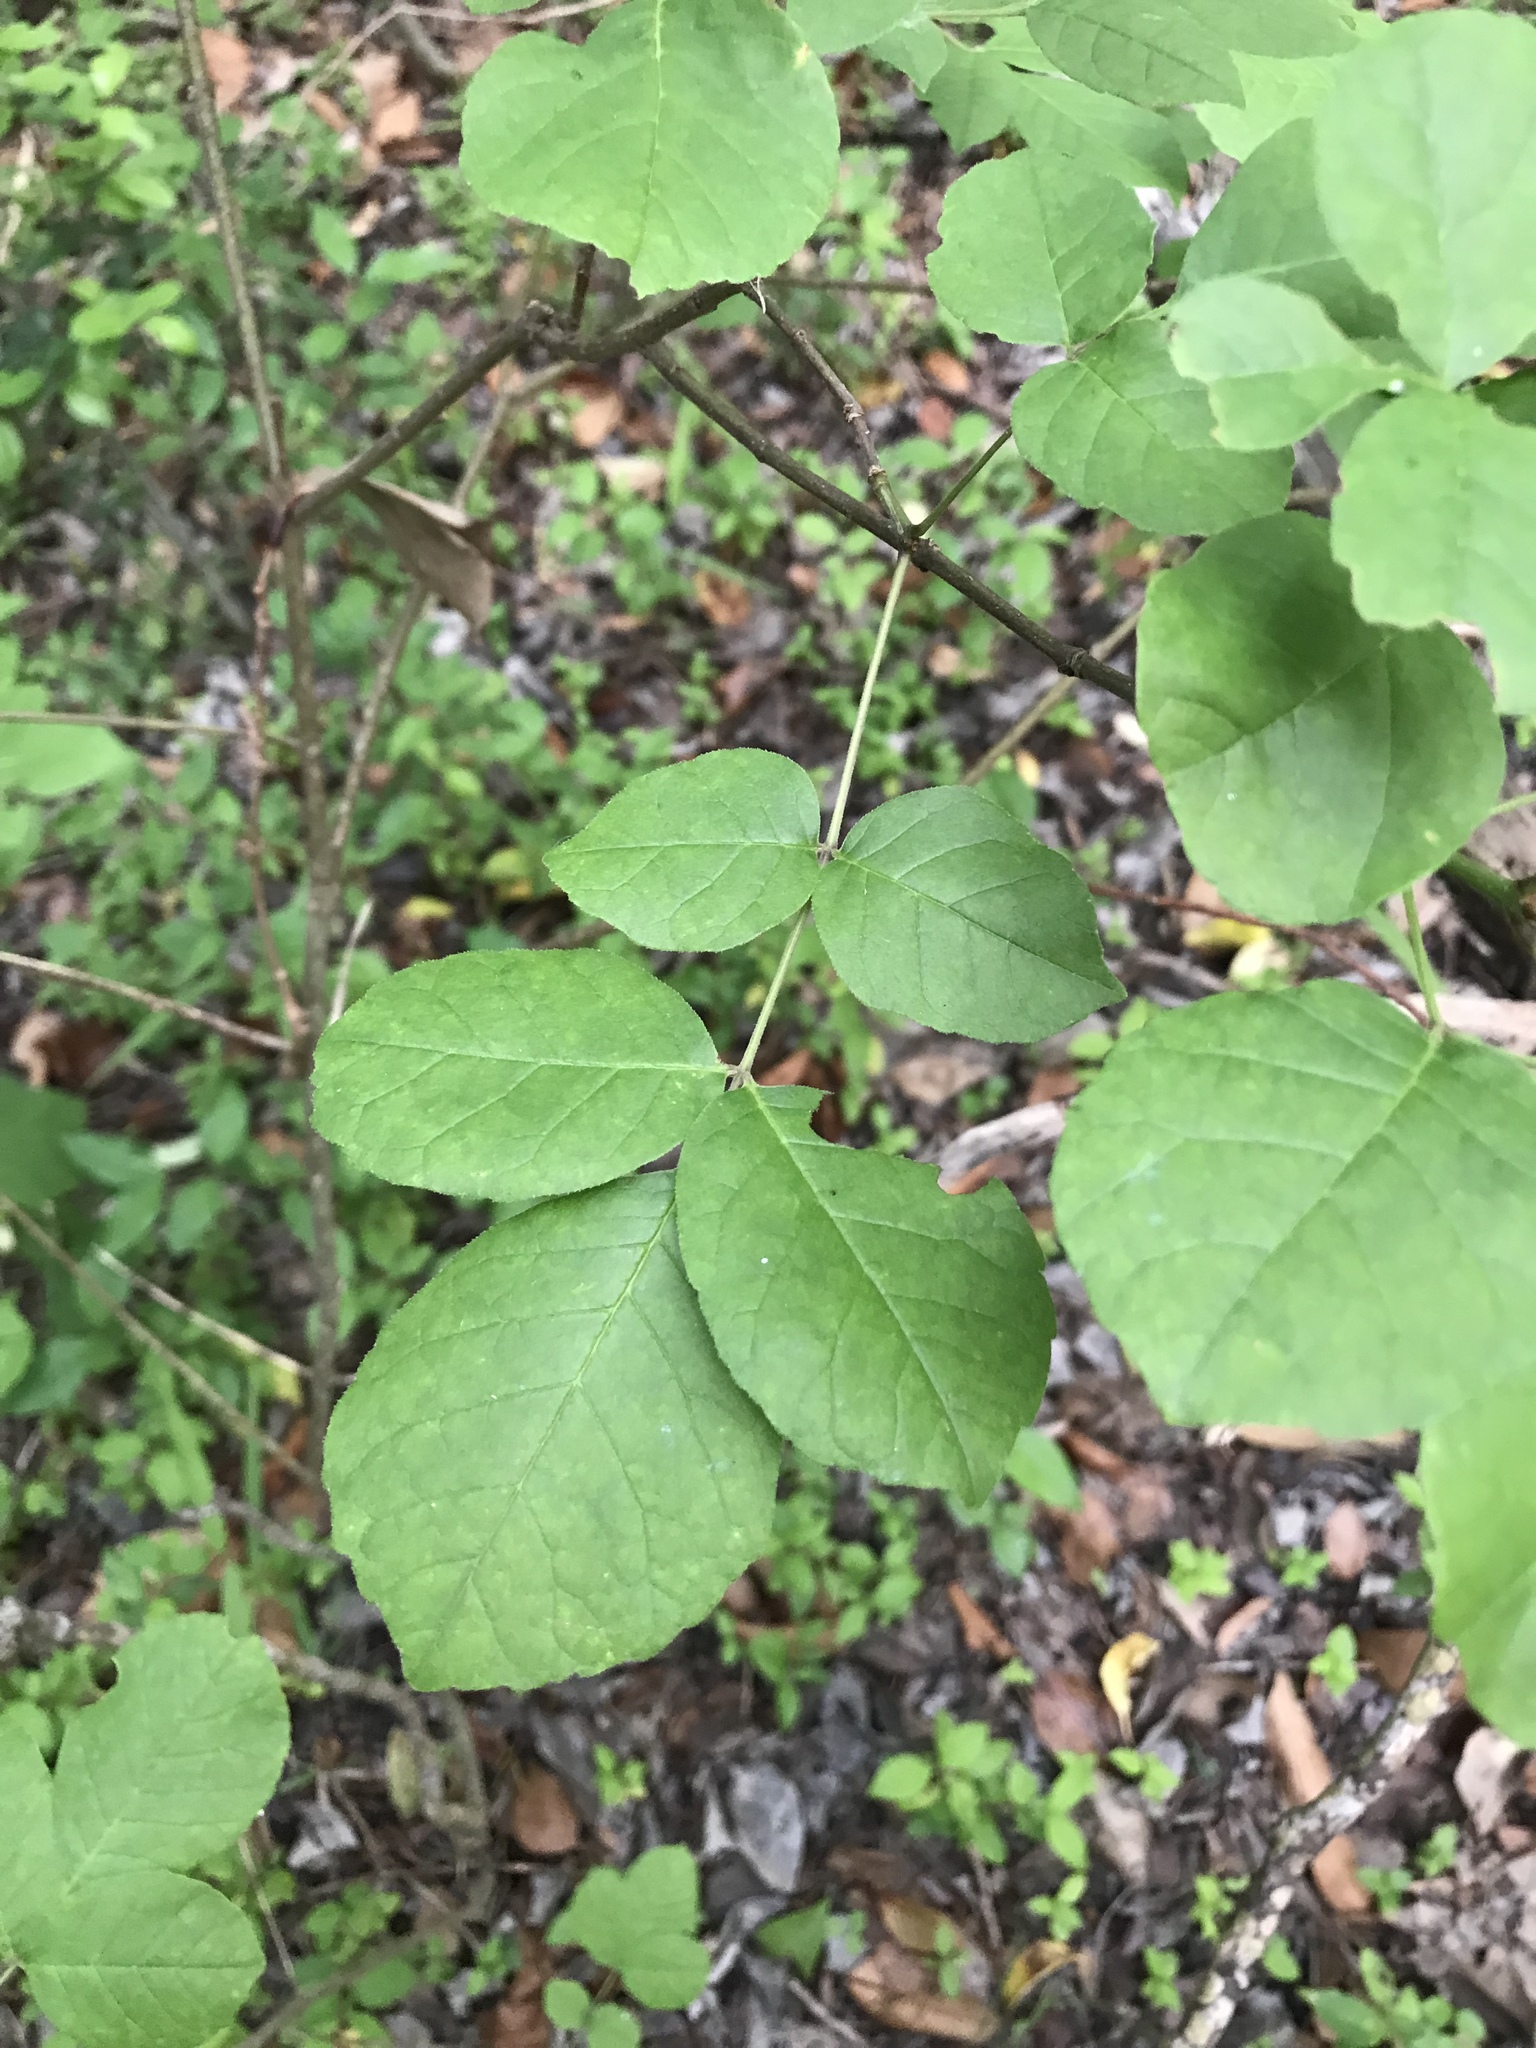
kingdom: Plantae
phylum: Tracheophyta
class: Magnoliopsida
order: Lamiales
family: Oleaceae
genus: Fraxinus
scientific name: Fraxinus albicans
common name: Texas ash
